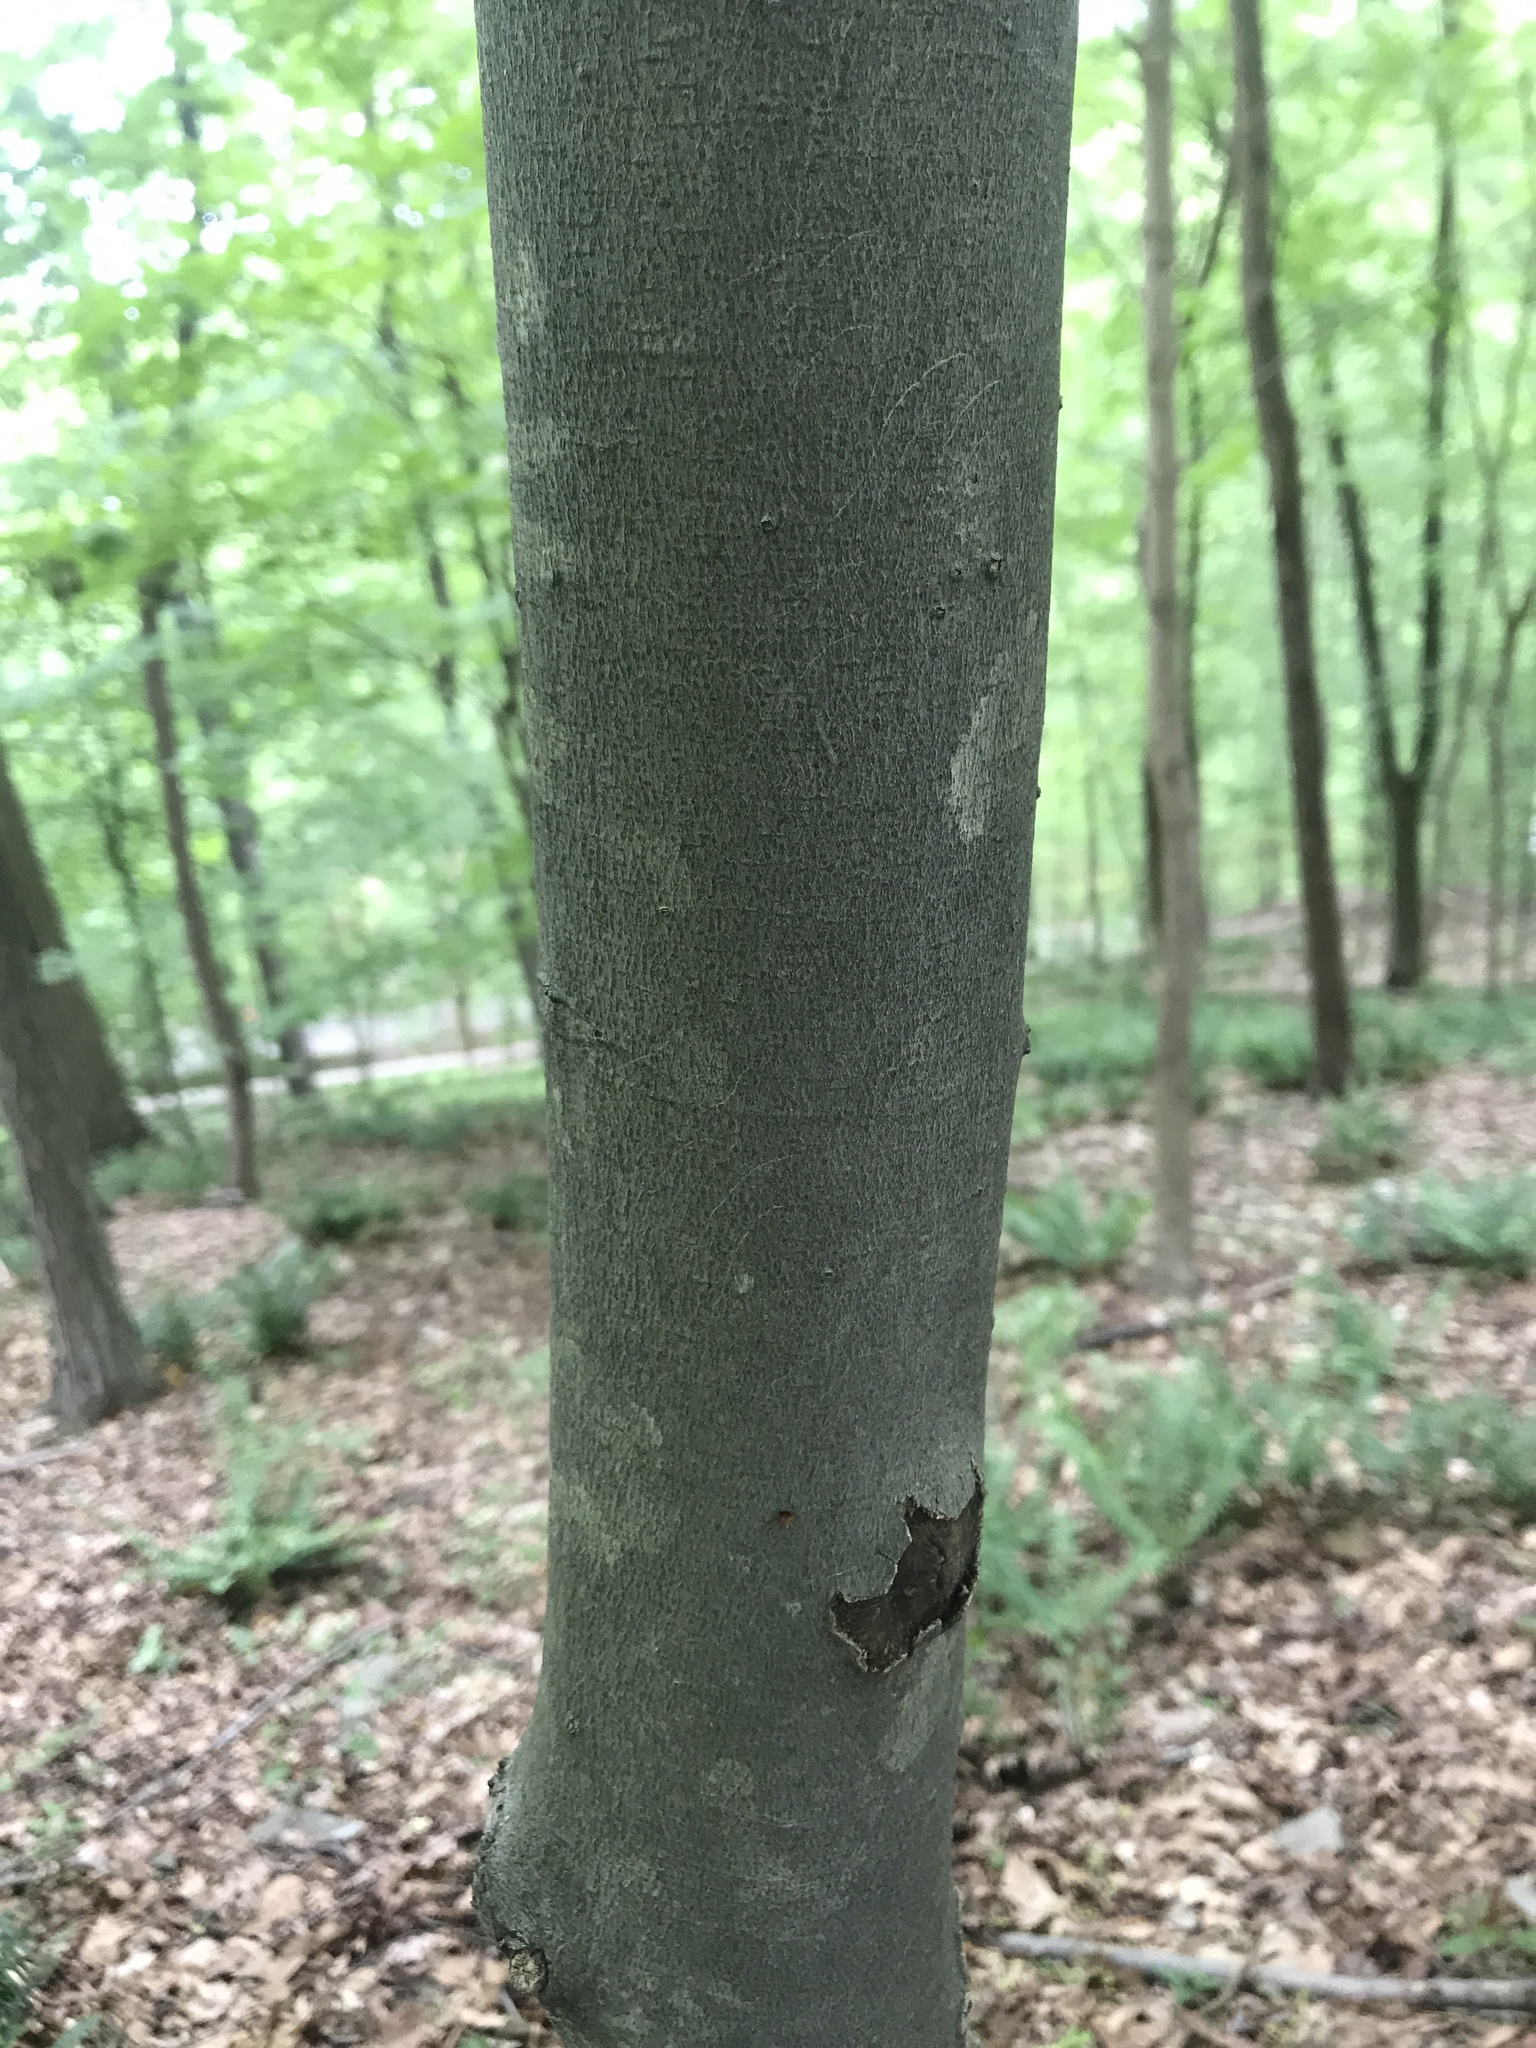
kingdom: Plantae
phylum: Tracheophyta
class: Magnoliopsida
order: Fagales
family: Fagaceae
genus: Fagus
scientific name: Fagus grandifolia
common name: American beech
